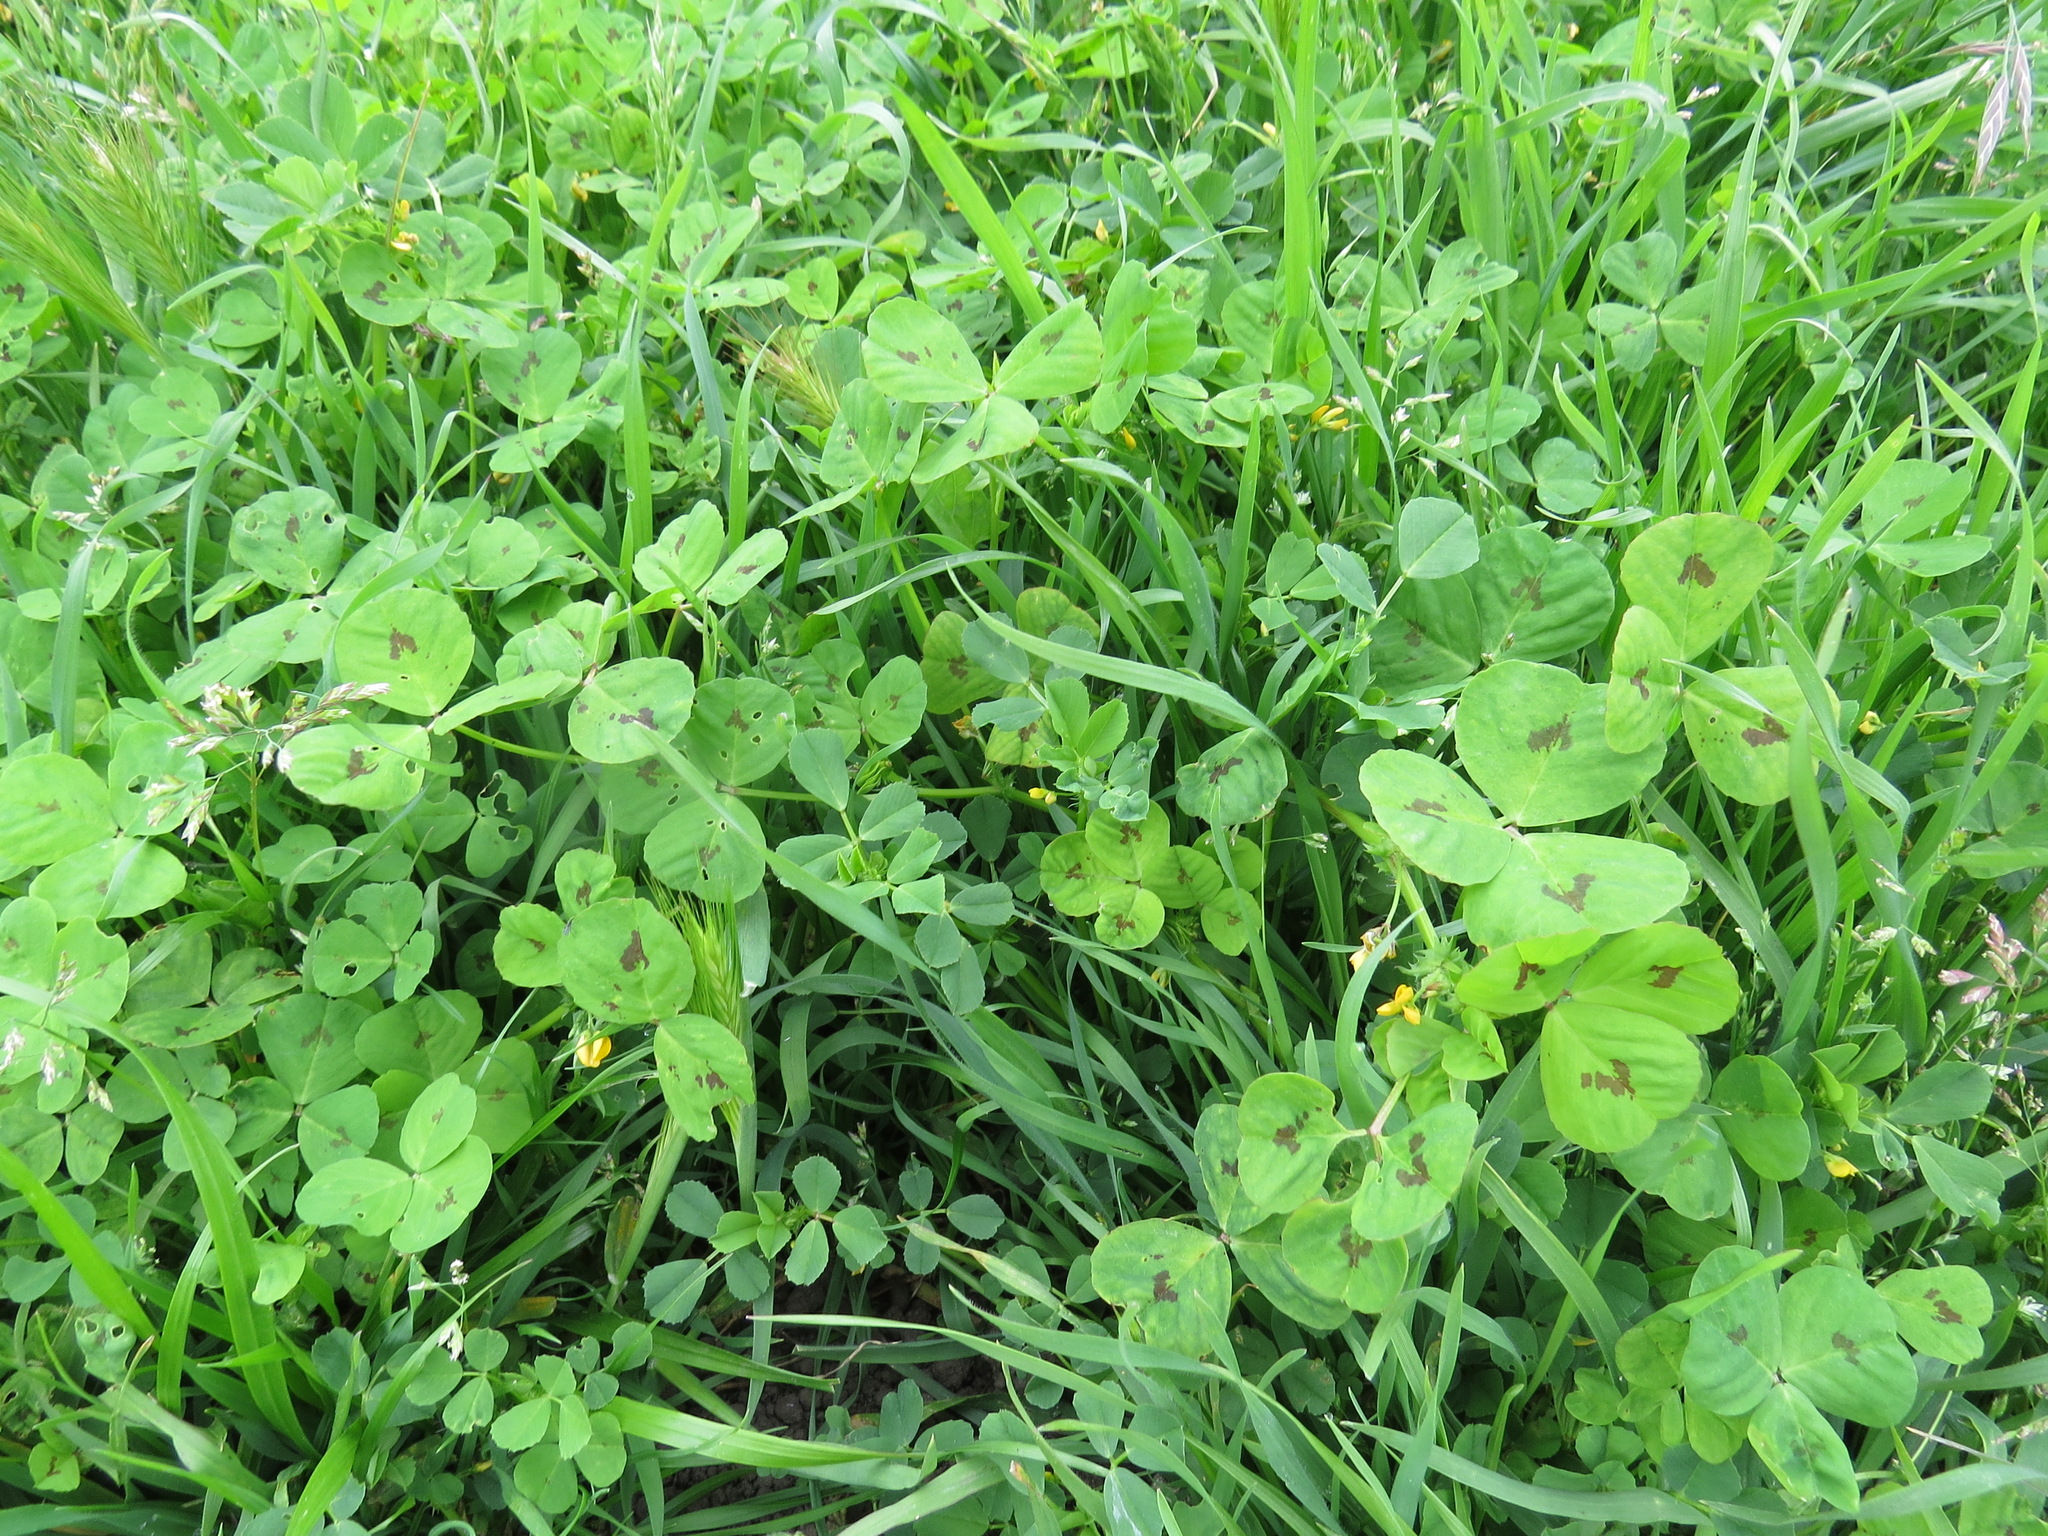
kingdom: Plantae
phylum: Tracheophyta
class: Magnoliopsida
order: Fabales
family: Fabaceae
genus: Medicago
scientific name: Medicago arabica
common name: Spotted medick
